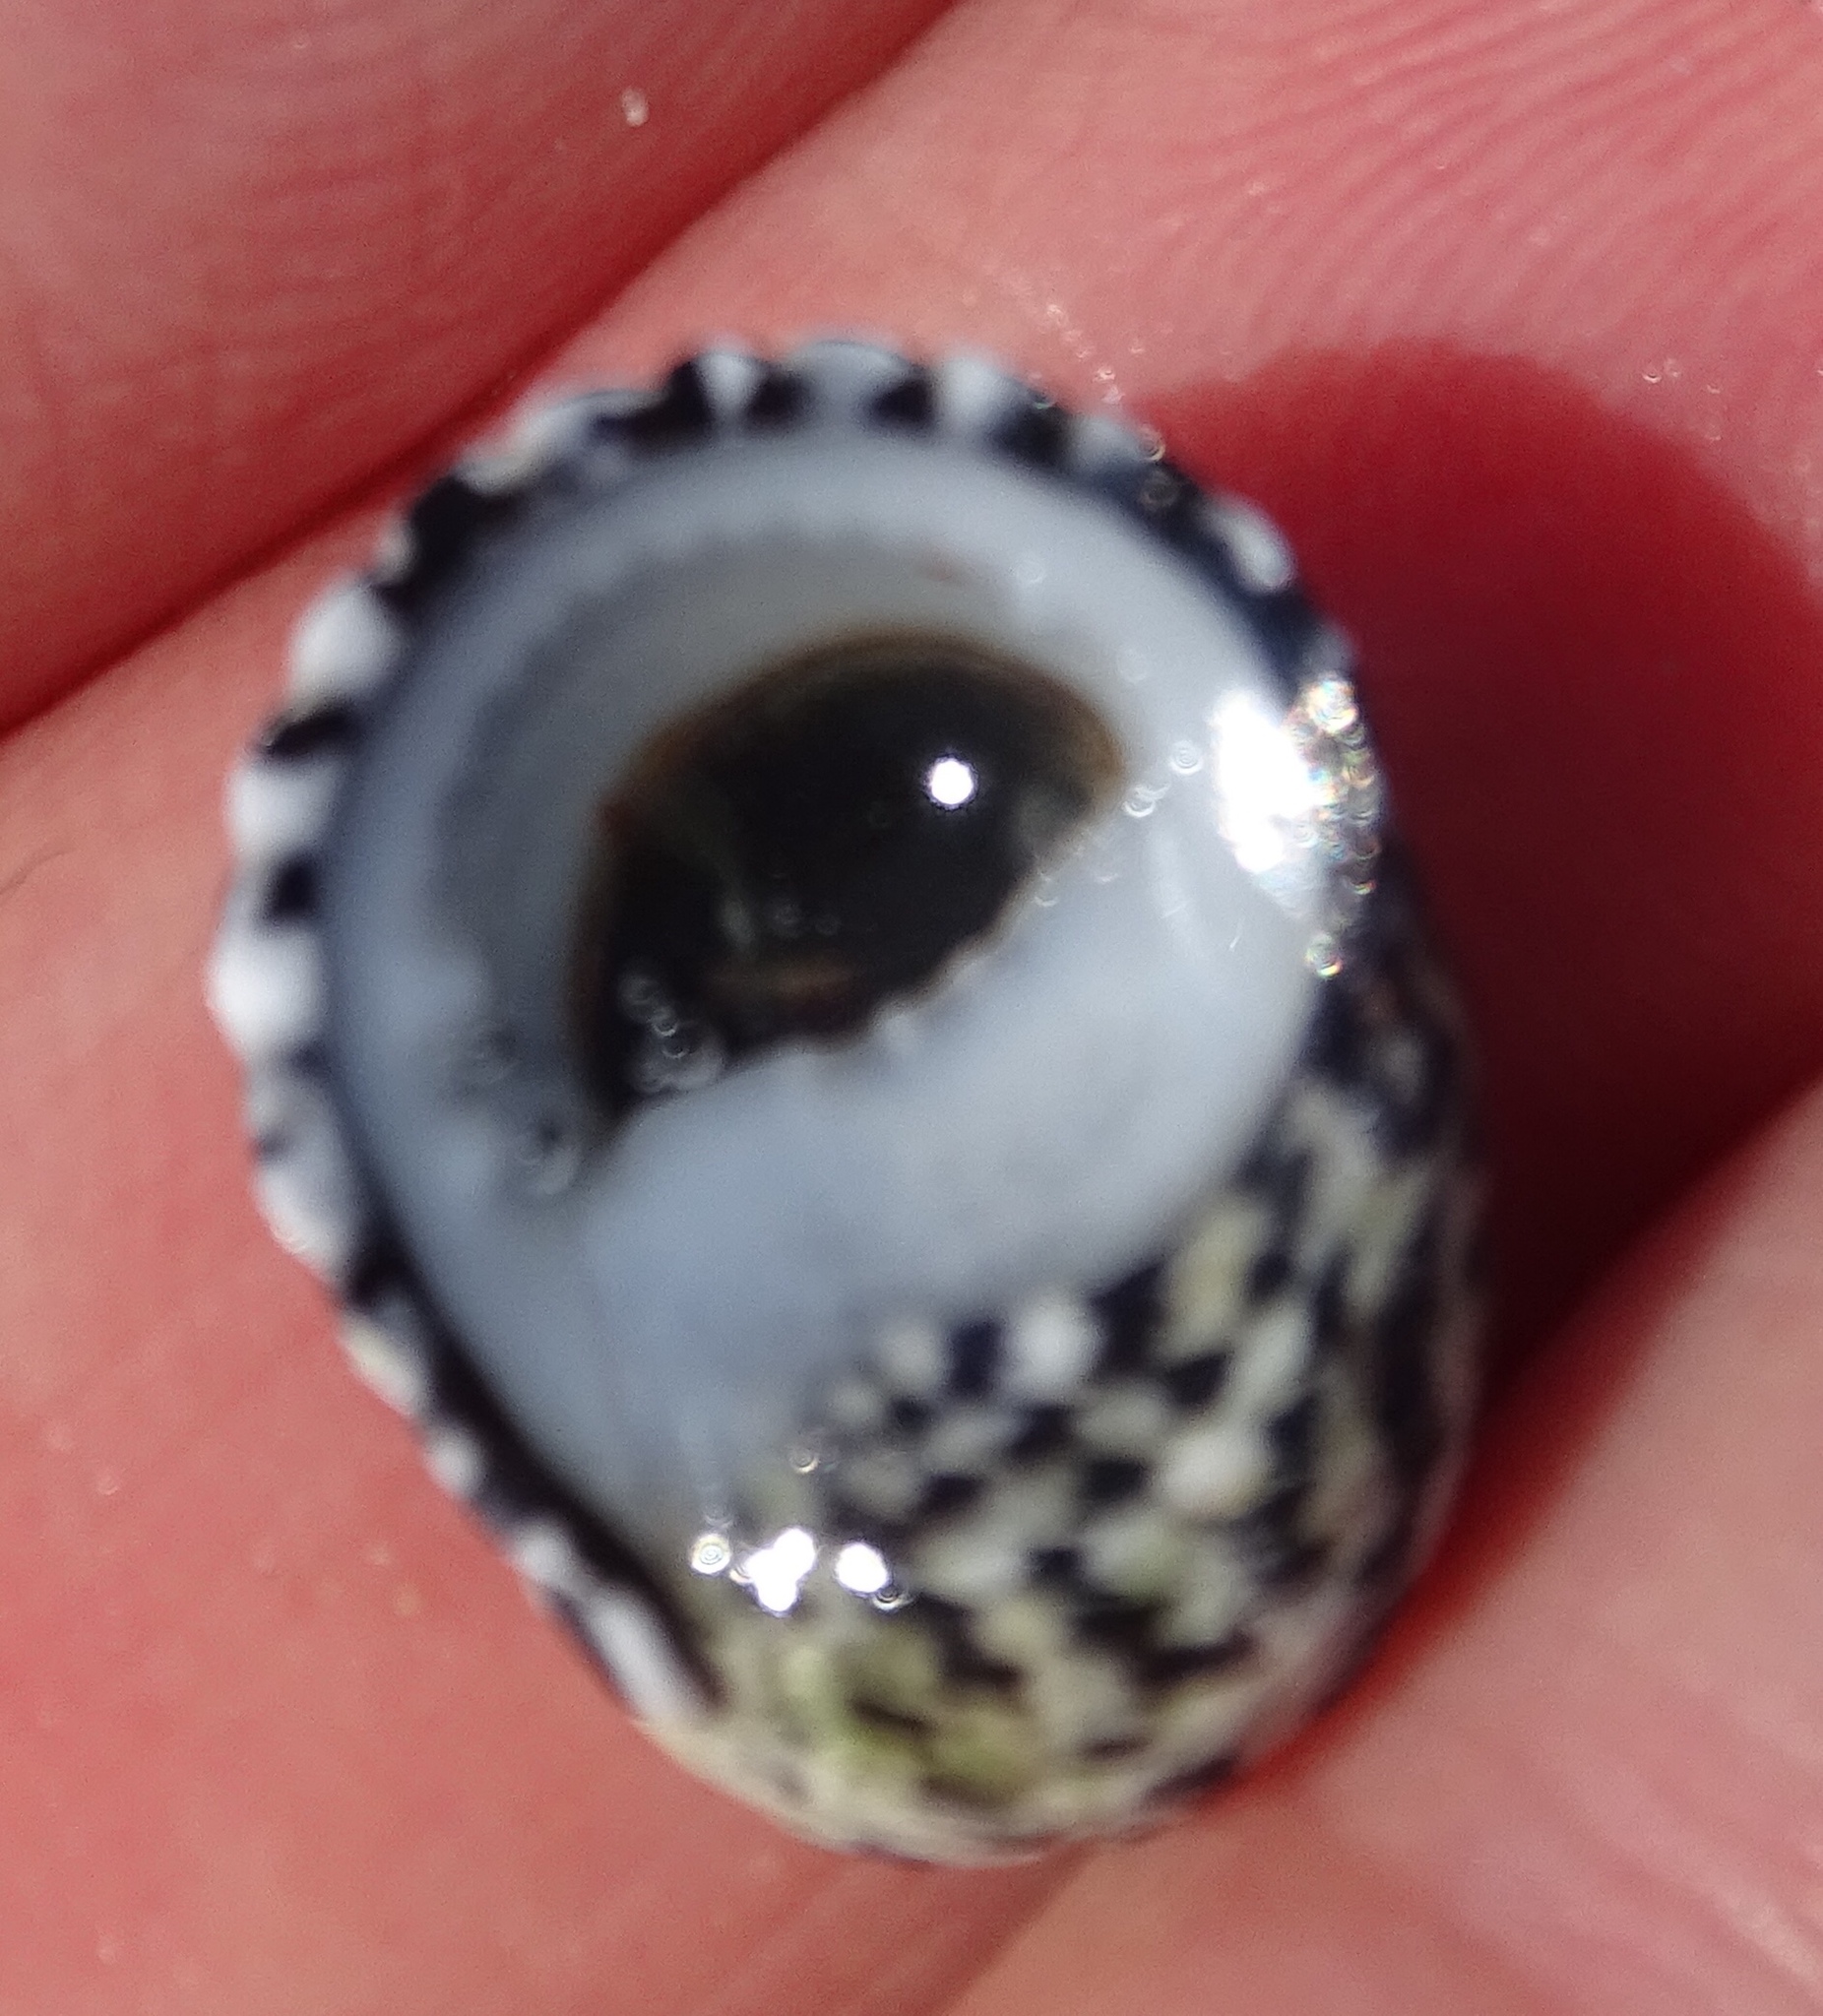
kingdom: Animalia
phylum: Mollusca
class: Gastropoda
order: Cycloneritida
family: Neritidae
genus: Nerita
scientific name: Nerita tessellata
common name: Checkered nerite
